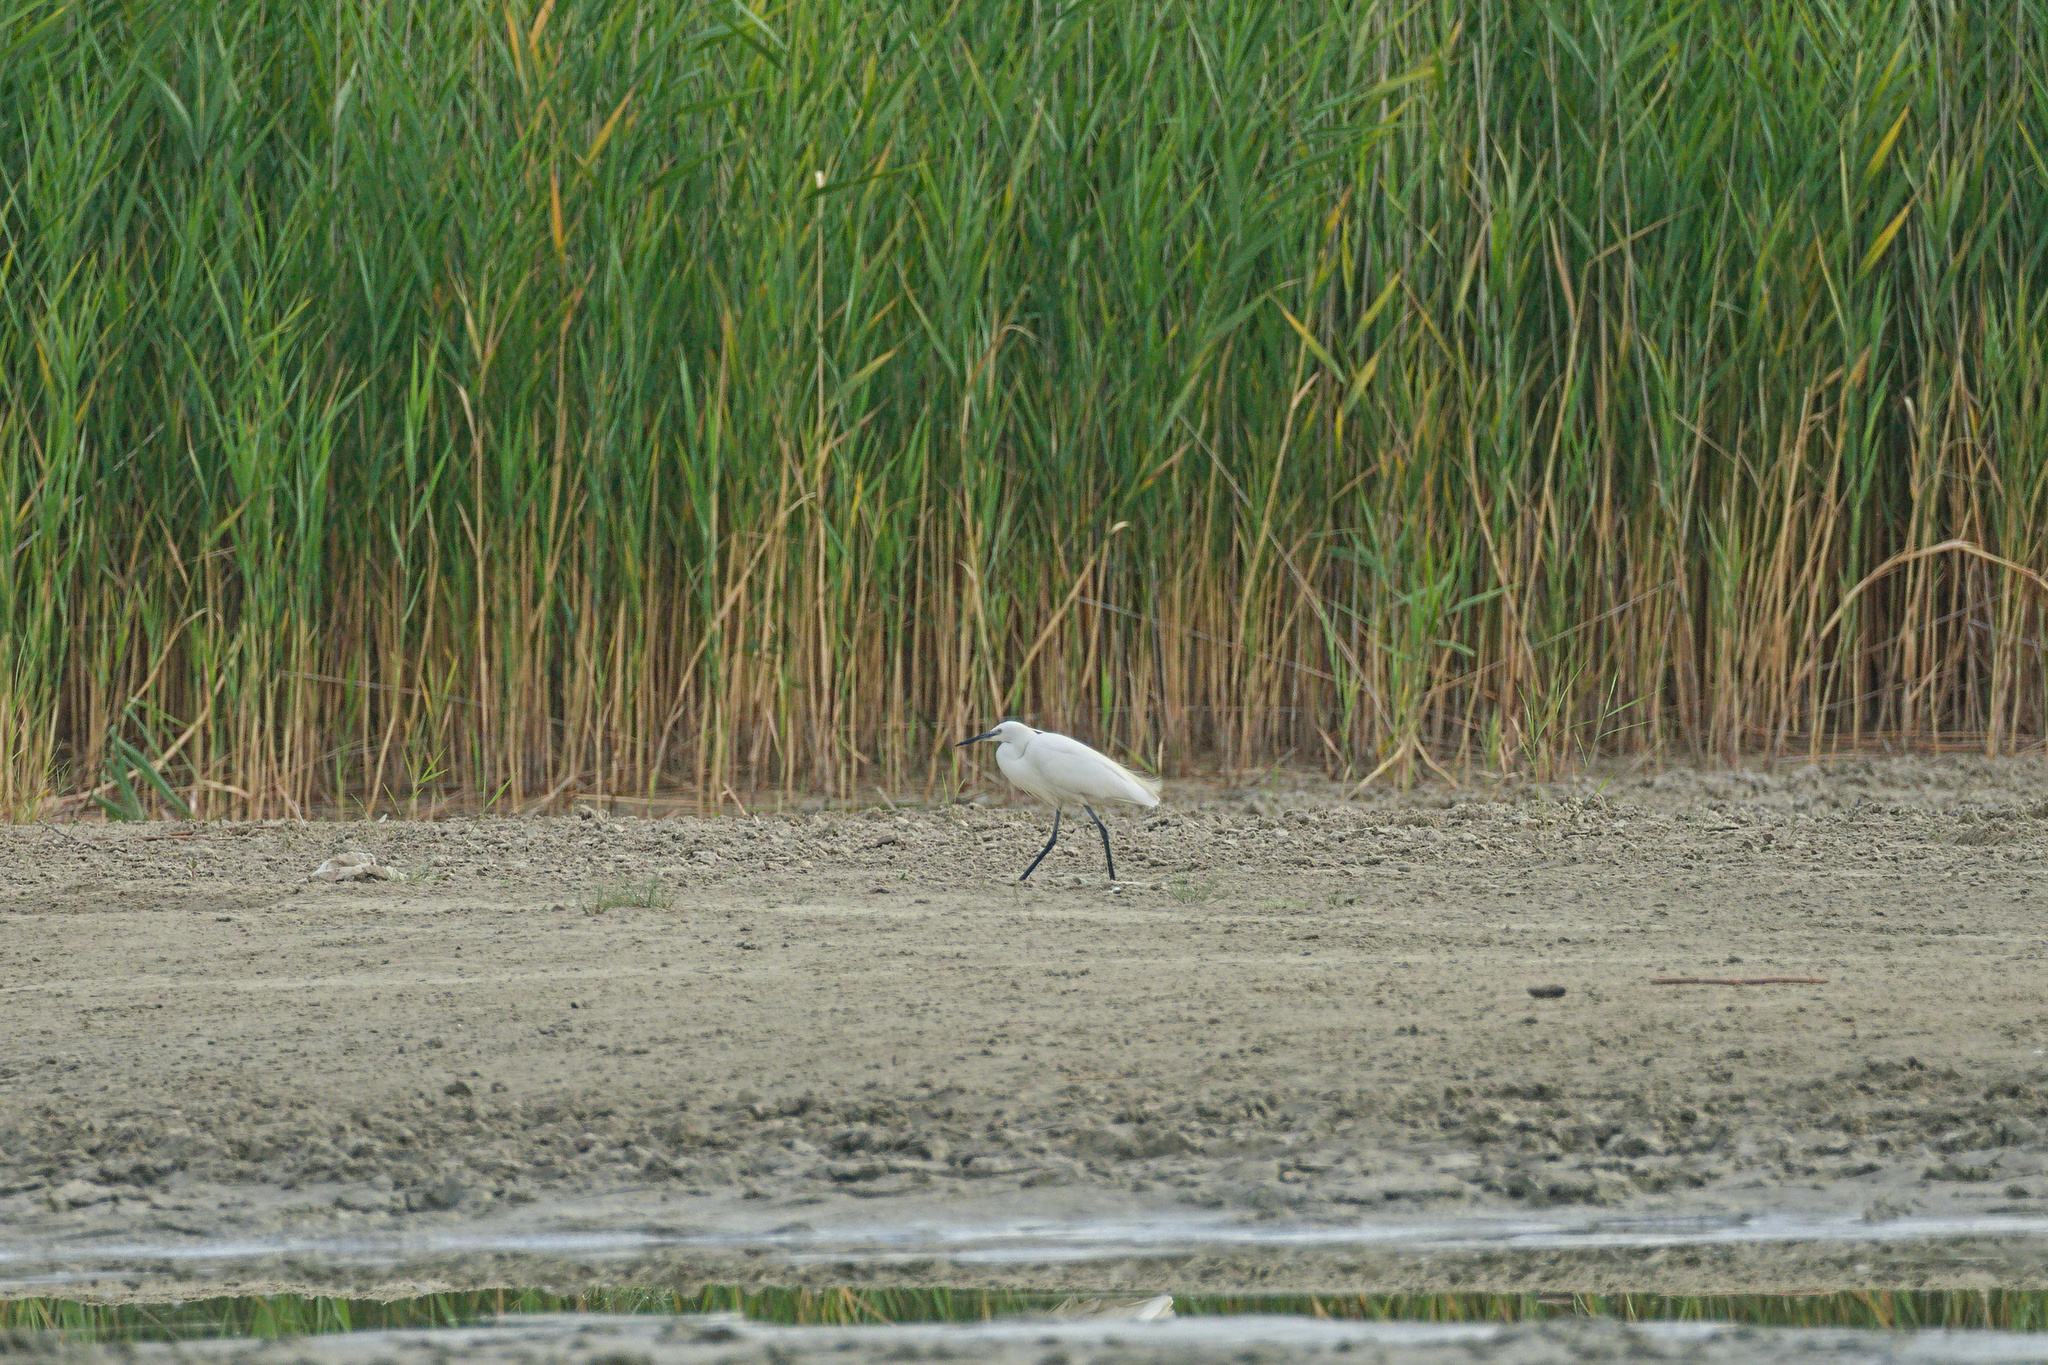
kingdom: Animalia
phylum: Chordata
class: Aves
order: Pelecaniformes
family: Ardeidae
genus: Egretta
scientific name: Egretta garzetta
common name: Little egret
